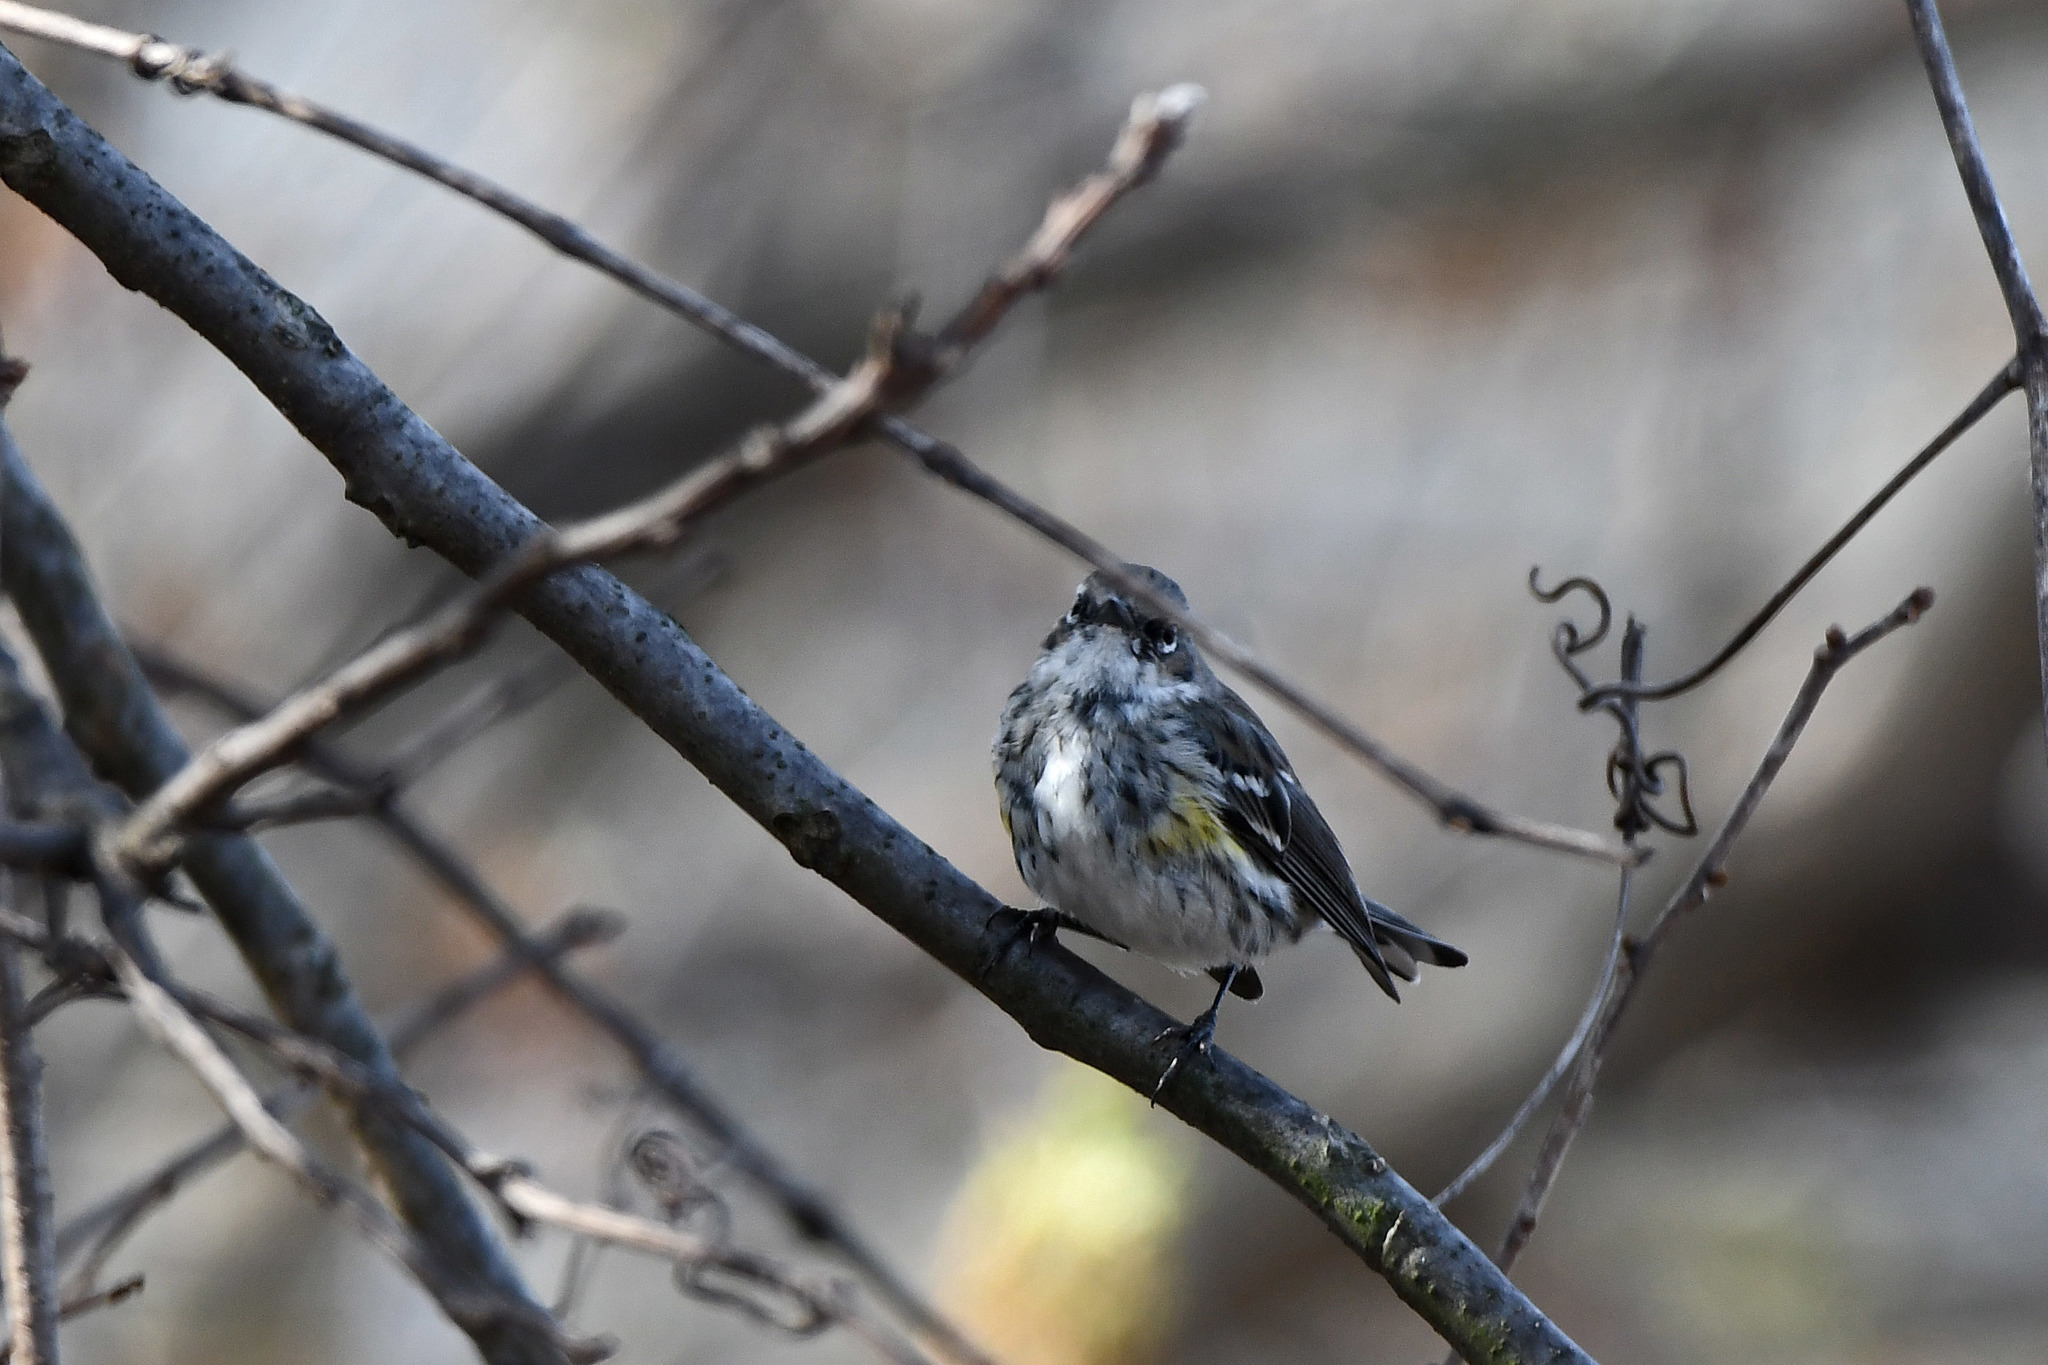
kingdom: Animalia
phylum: Chordata
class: Aves
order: Passeriformes
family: Parulidae
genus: Setophaga
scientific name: Setophaga coronata
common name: Myrtle warbler
